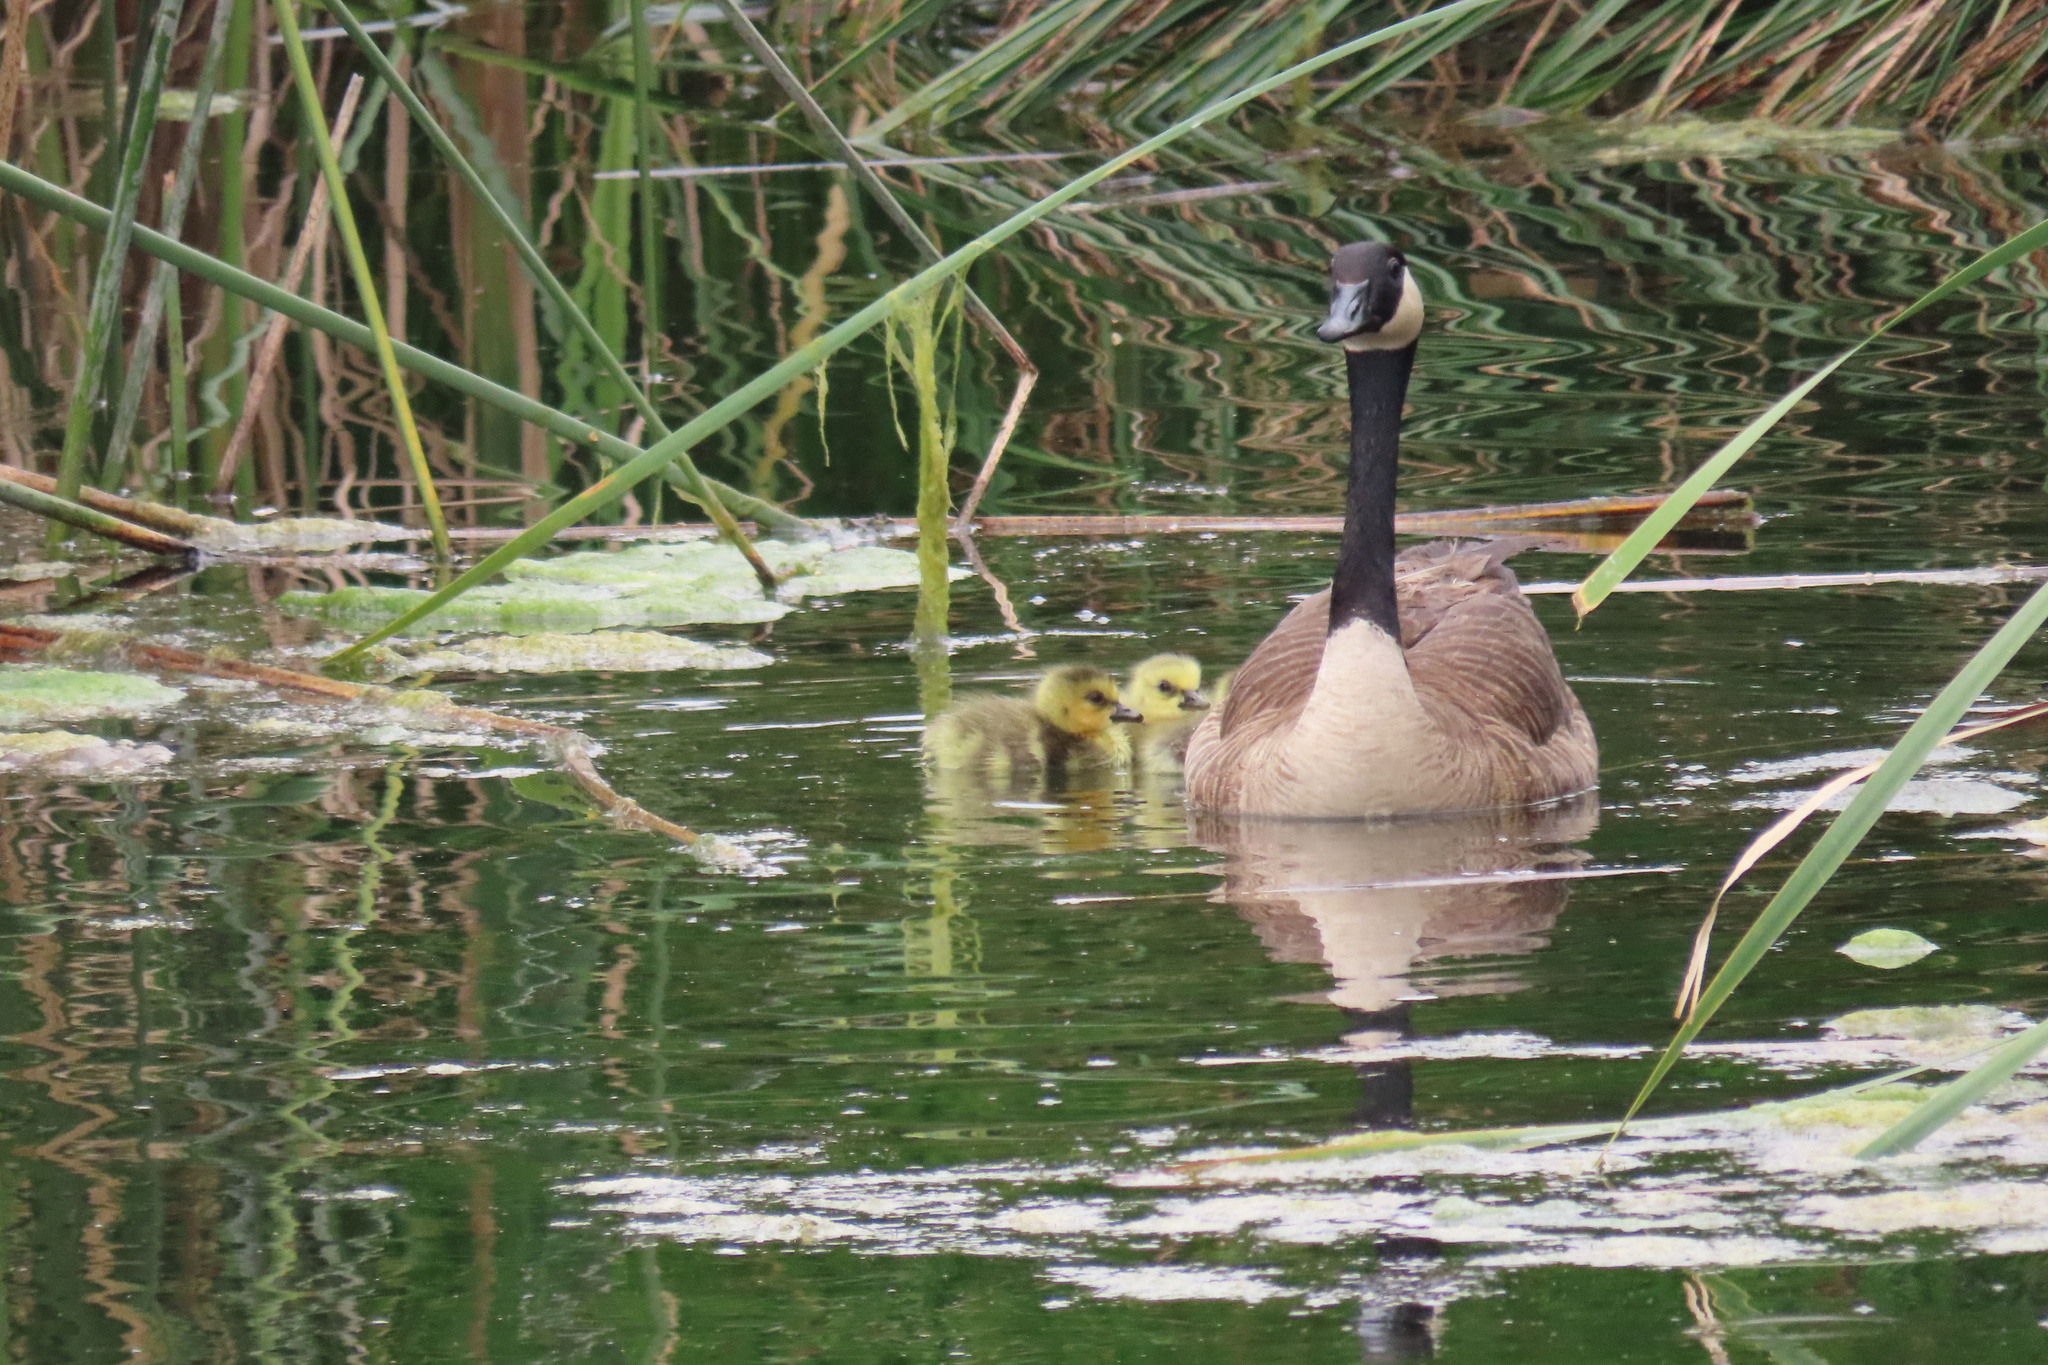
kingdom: Animalia
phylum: Chordata
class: Aves
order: Anseriformes
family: Anatidae
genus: Branta
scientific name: Branta canadensis
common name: Canada goose
